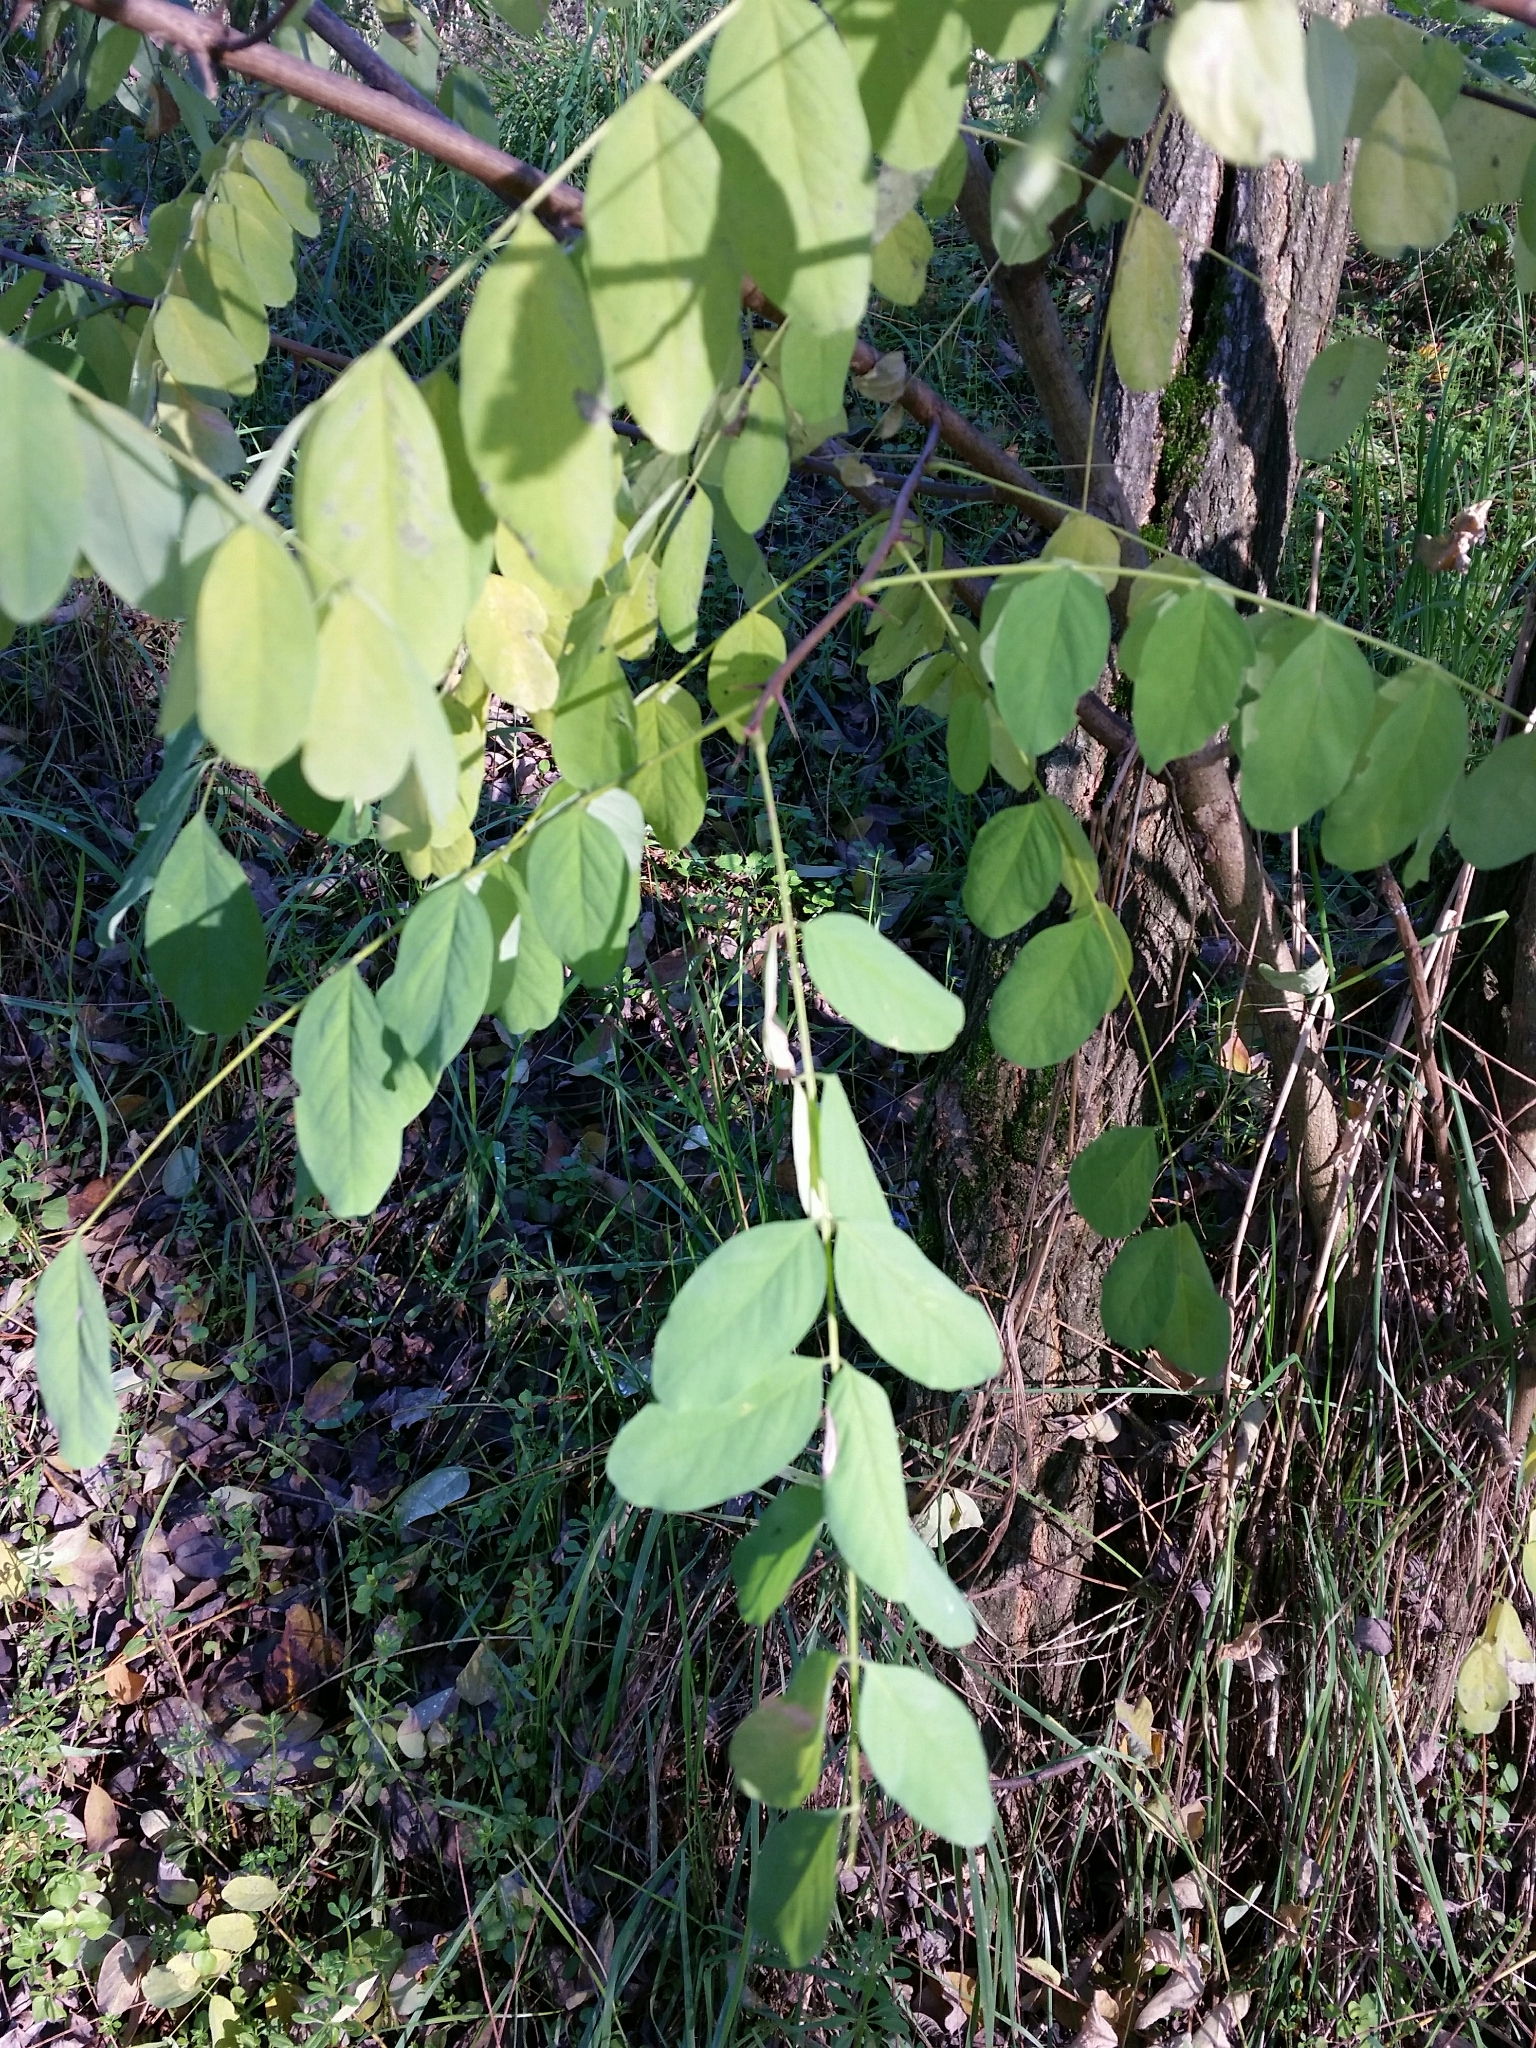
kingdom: Plantae
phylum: Tracheophyta
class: Magnoliopsida
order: Fabales
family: Fabaceae
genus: Robinia
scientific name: Robinia pseudoacacia
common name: Black locust
